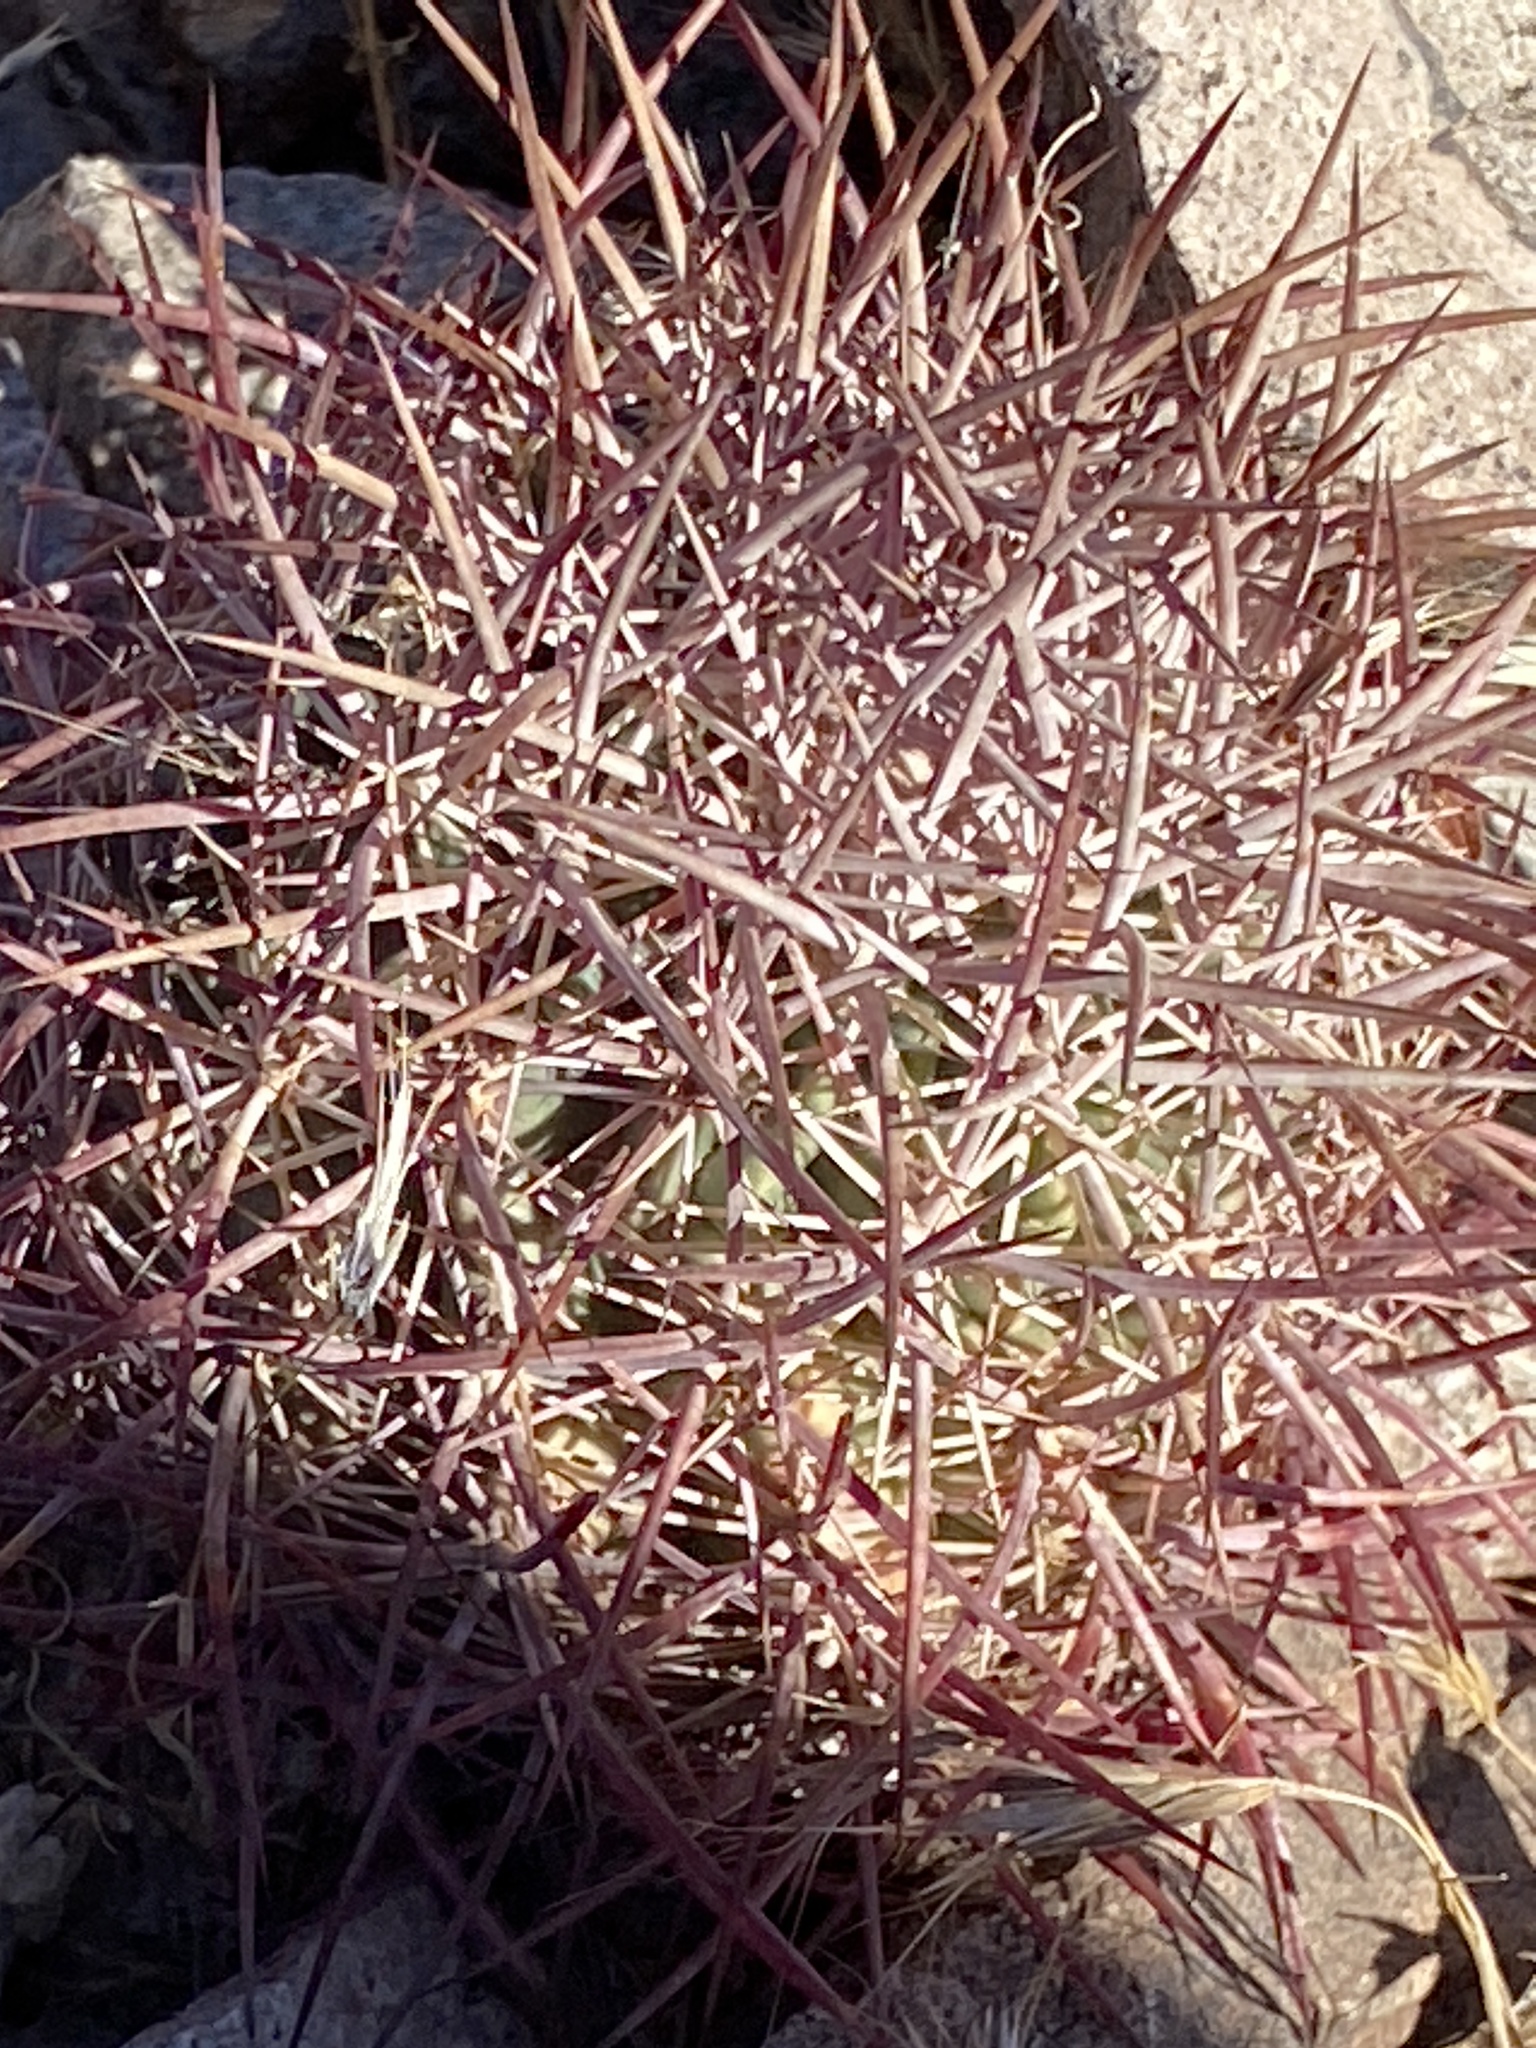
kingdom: Plantae
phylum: Tracheophyta
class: Magnoliopsida
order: Caryophyllales
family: Cactaceae
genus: Sclerocactus
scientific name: Sclerocactus johnsonii
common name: Eight-spine fishhook cactus
